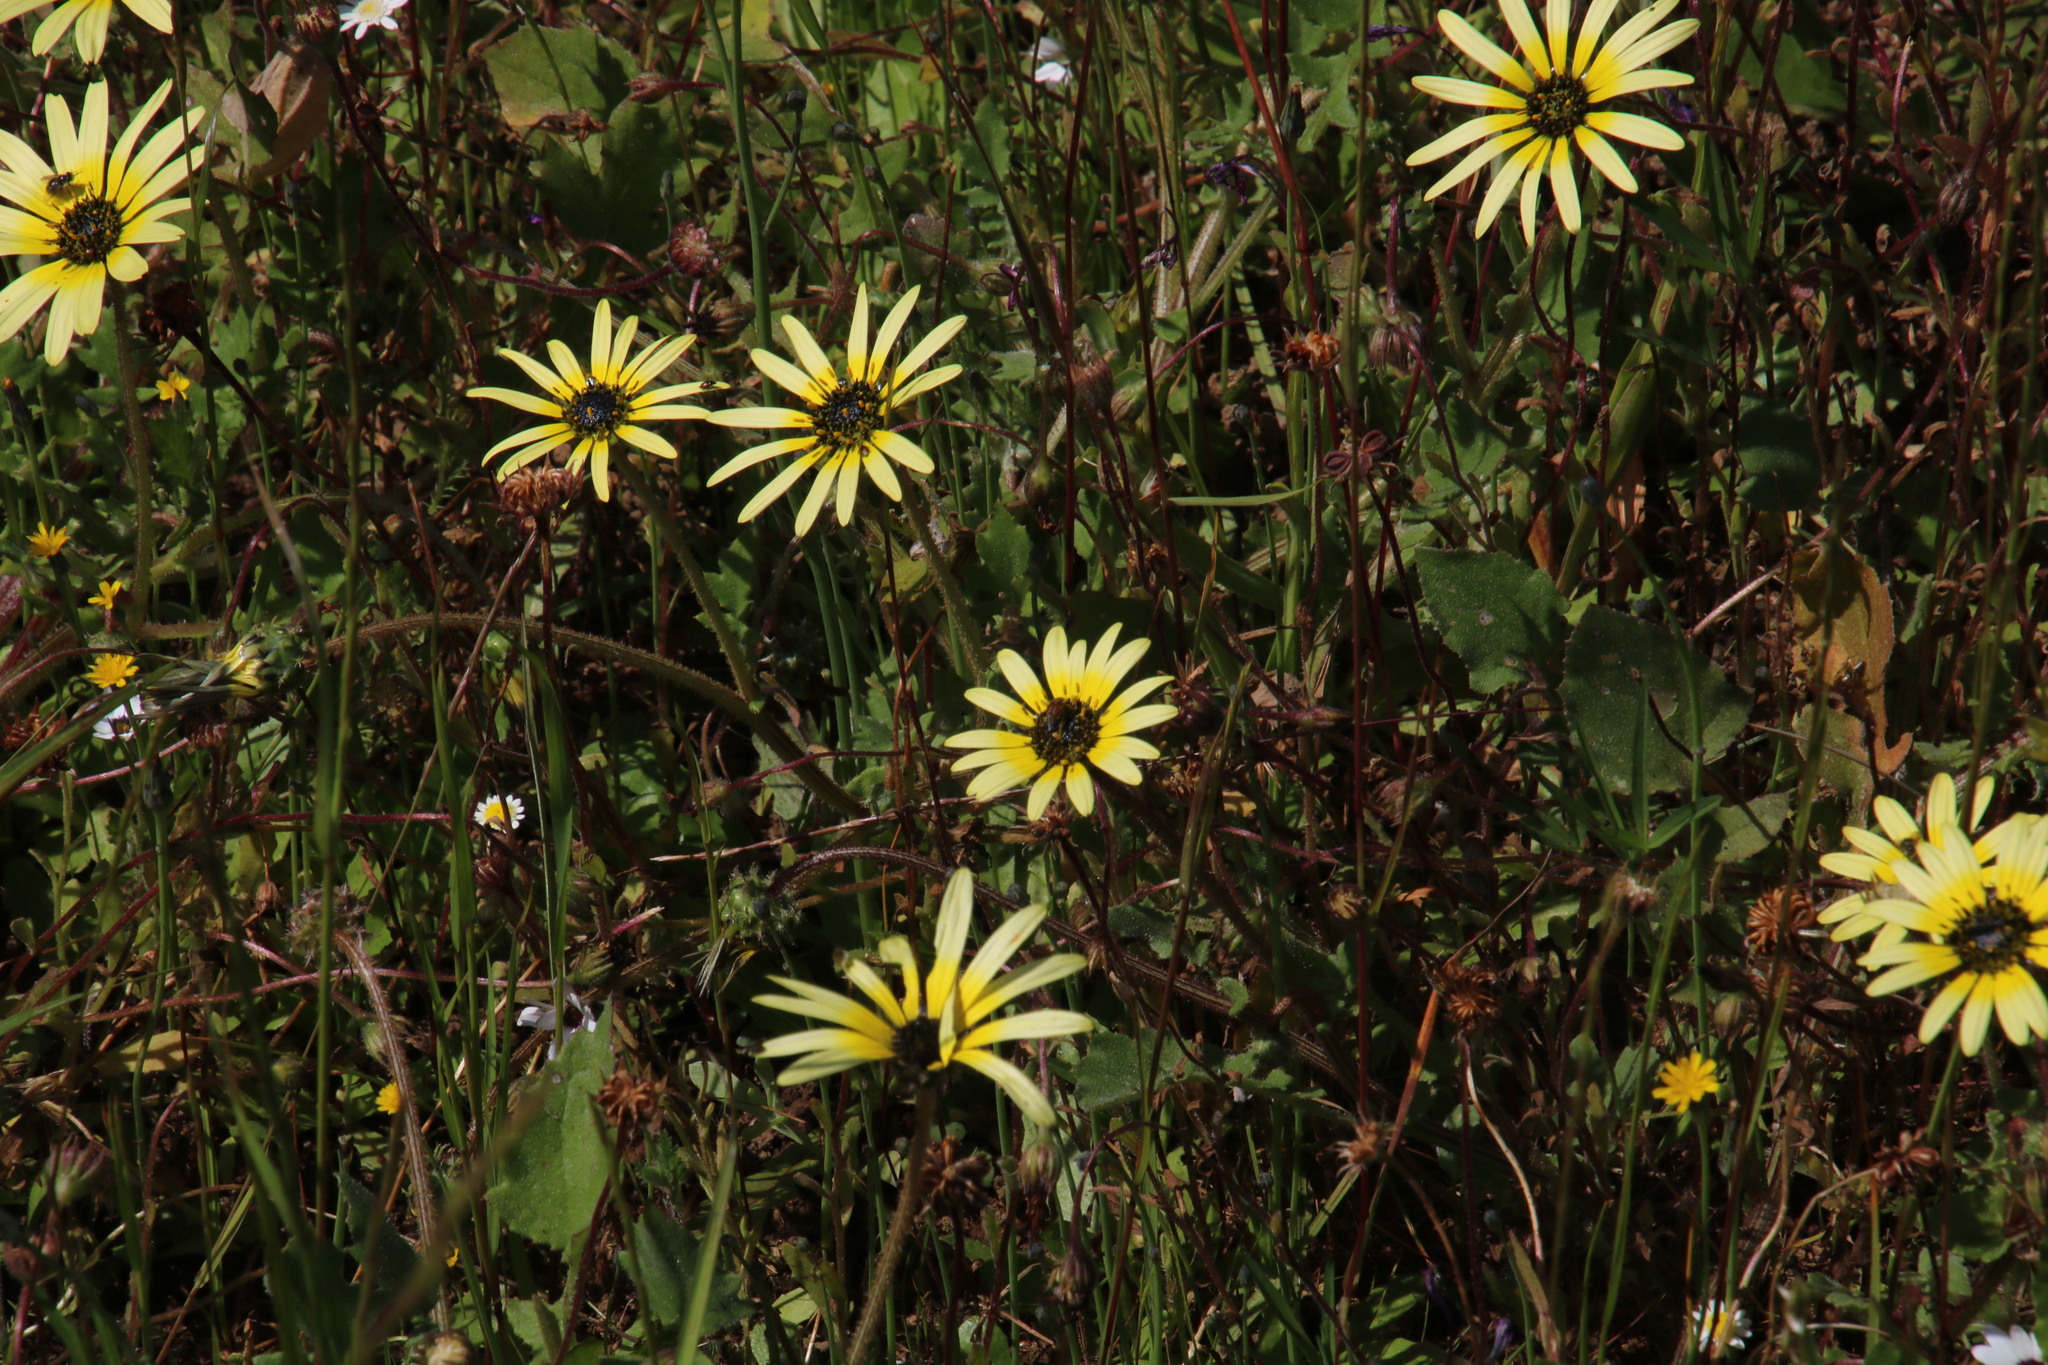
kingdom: Plantae
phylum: Tracheophyta
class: Magnoliopsida
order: Asterales
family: Asteraceae
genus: Arctotheca
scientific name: Arctotheca calendula
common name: Capeweed
